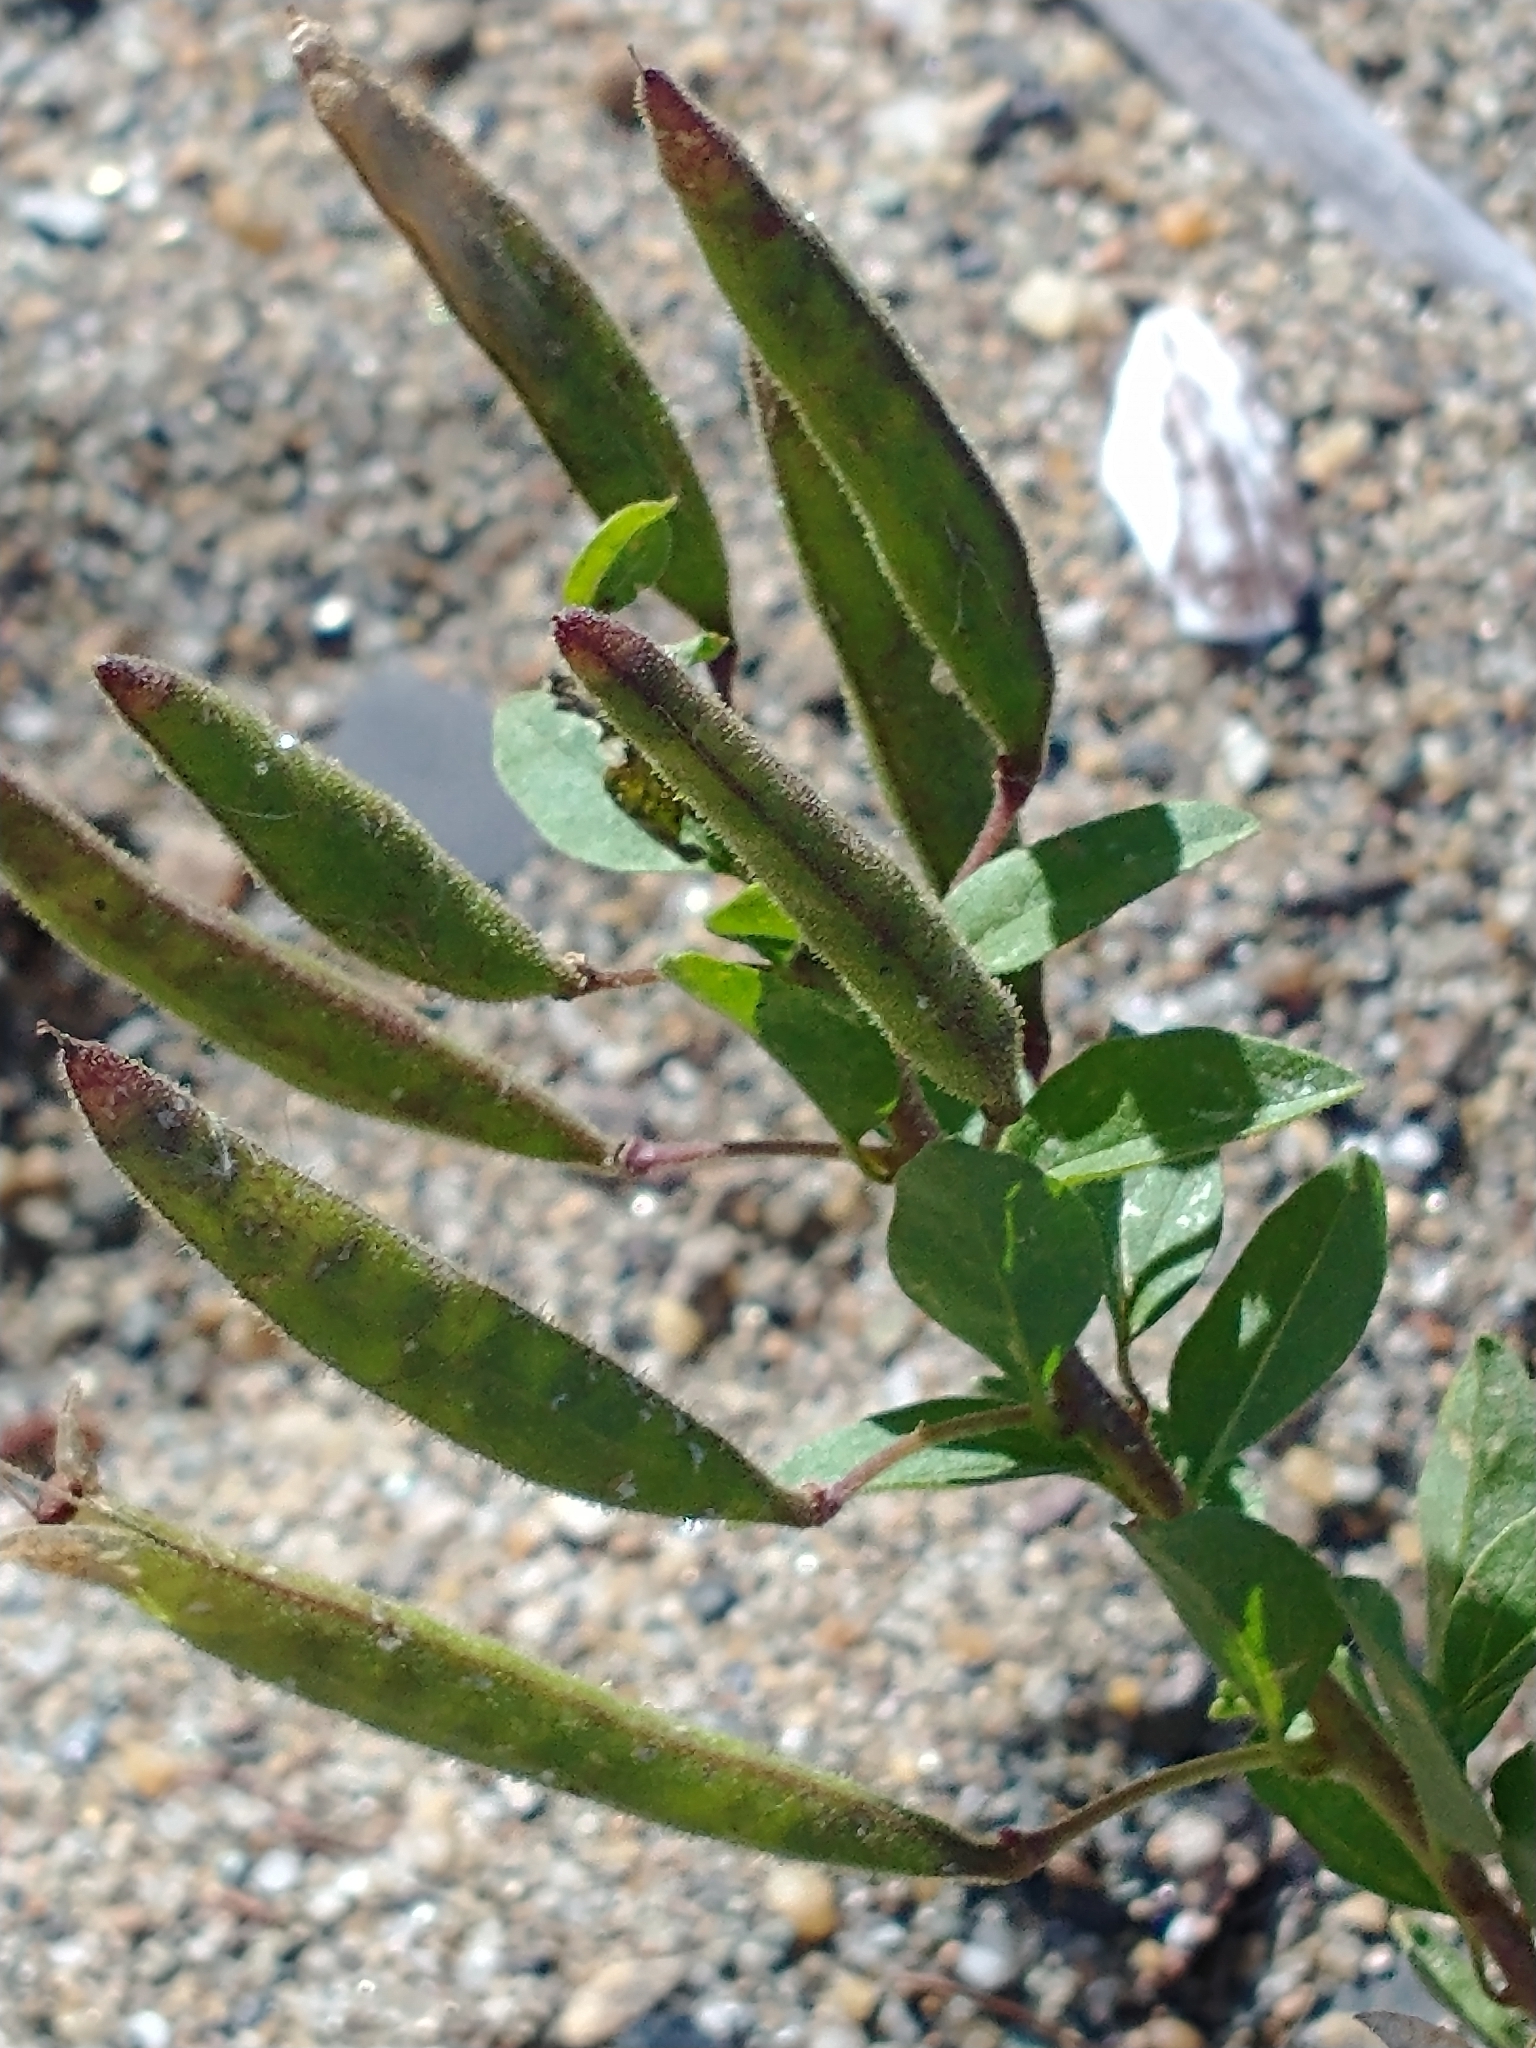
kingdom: Plantae
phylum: Tracheophyta
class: Magnoliopsida
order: Brassicales
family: Cleomaceae
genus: Polanisia
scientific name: Polanisia dodecandra
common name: Clammyweed
